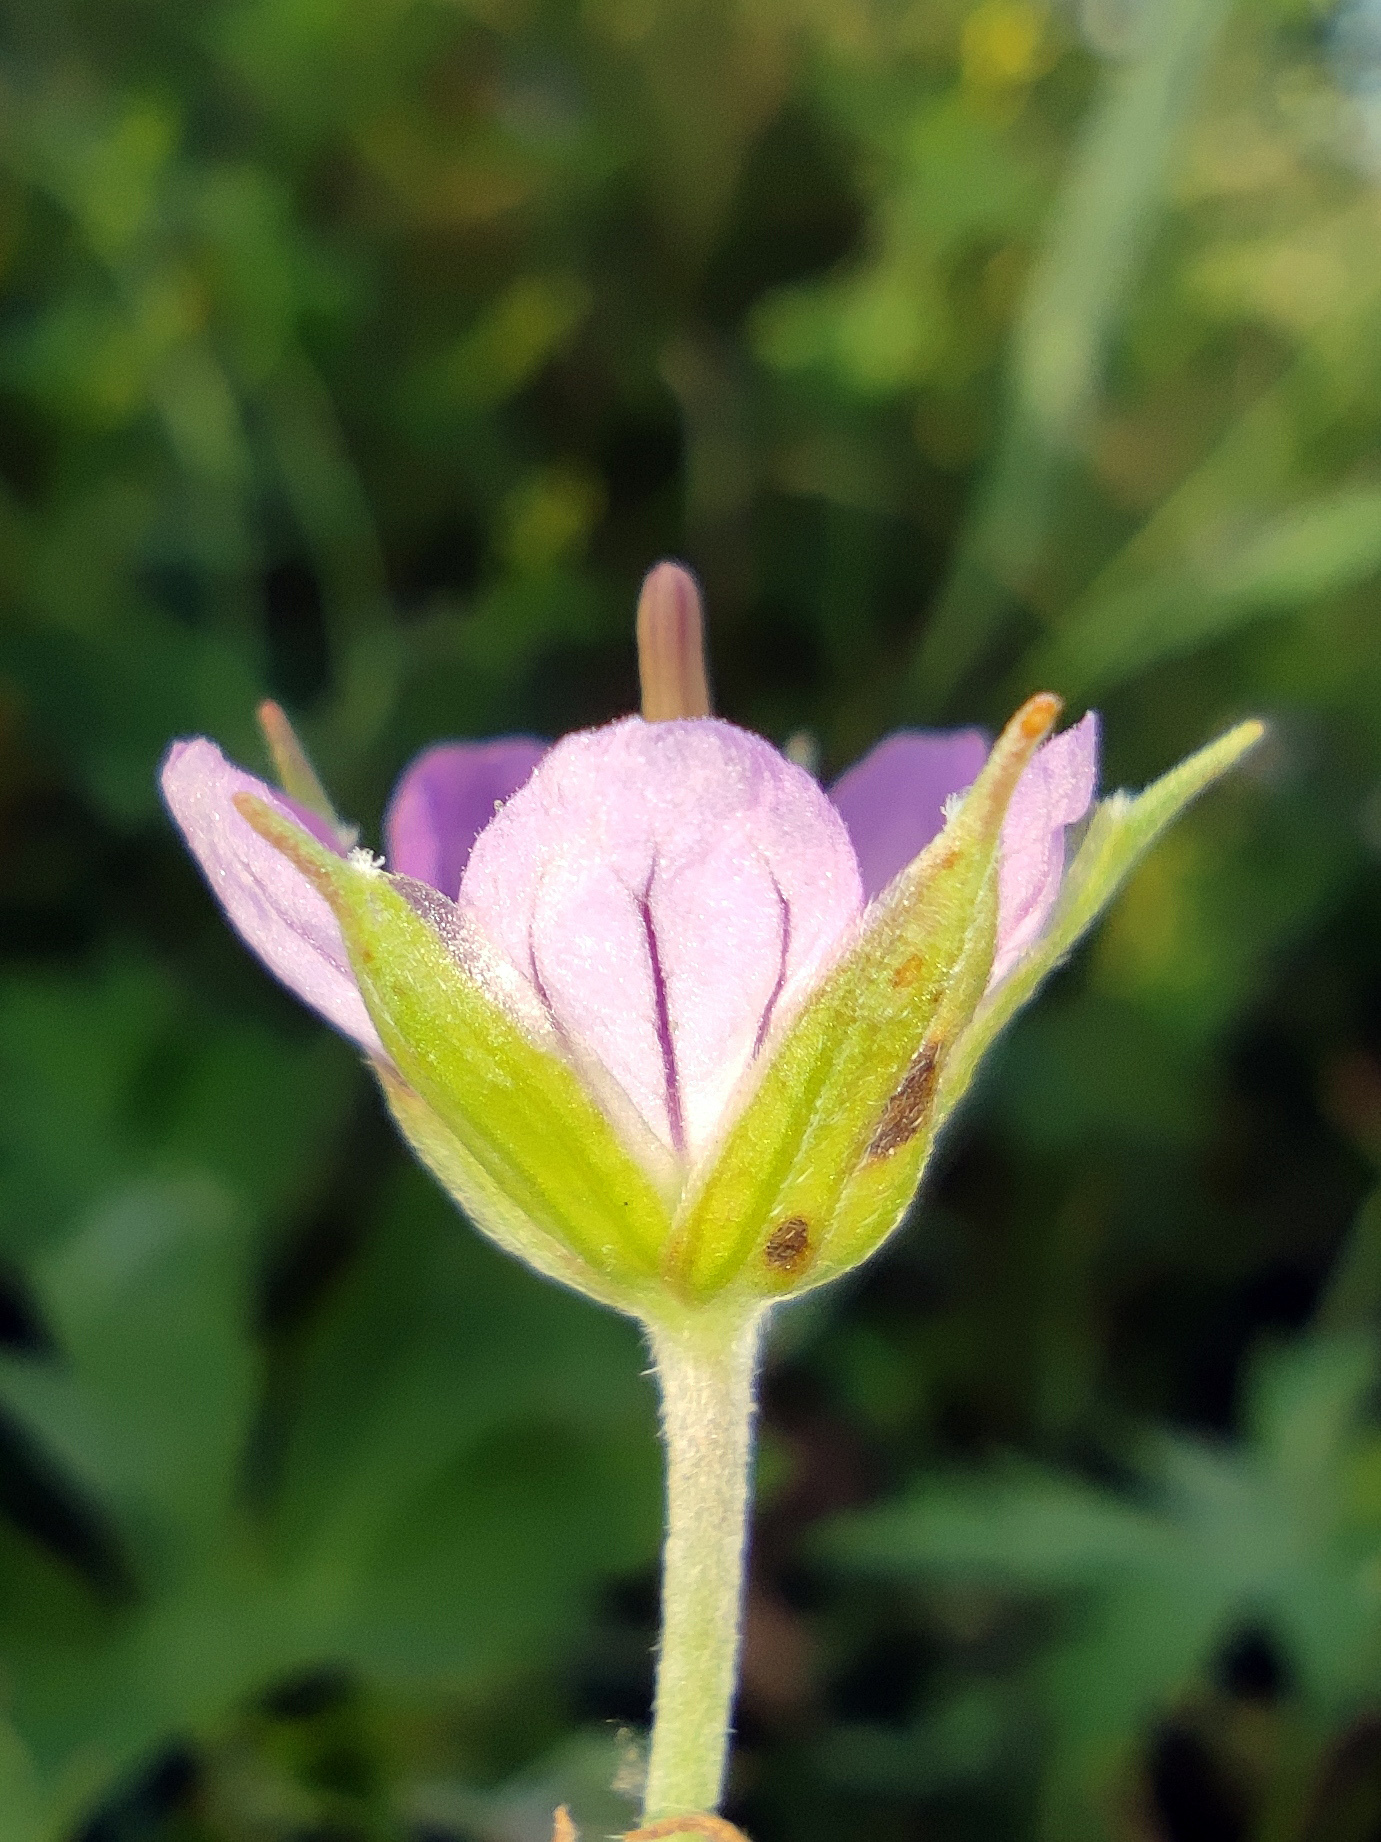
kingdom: Plantae
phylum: Tracheophyta
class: Magnoliopsida
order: Geraniales
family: Geraniaceae
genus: Geranium
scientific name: Geranium collinum
